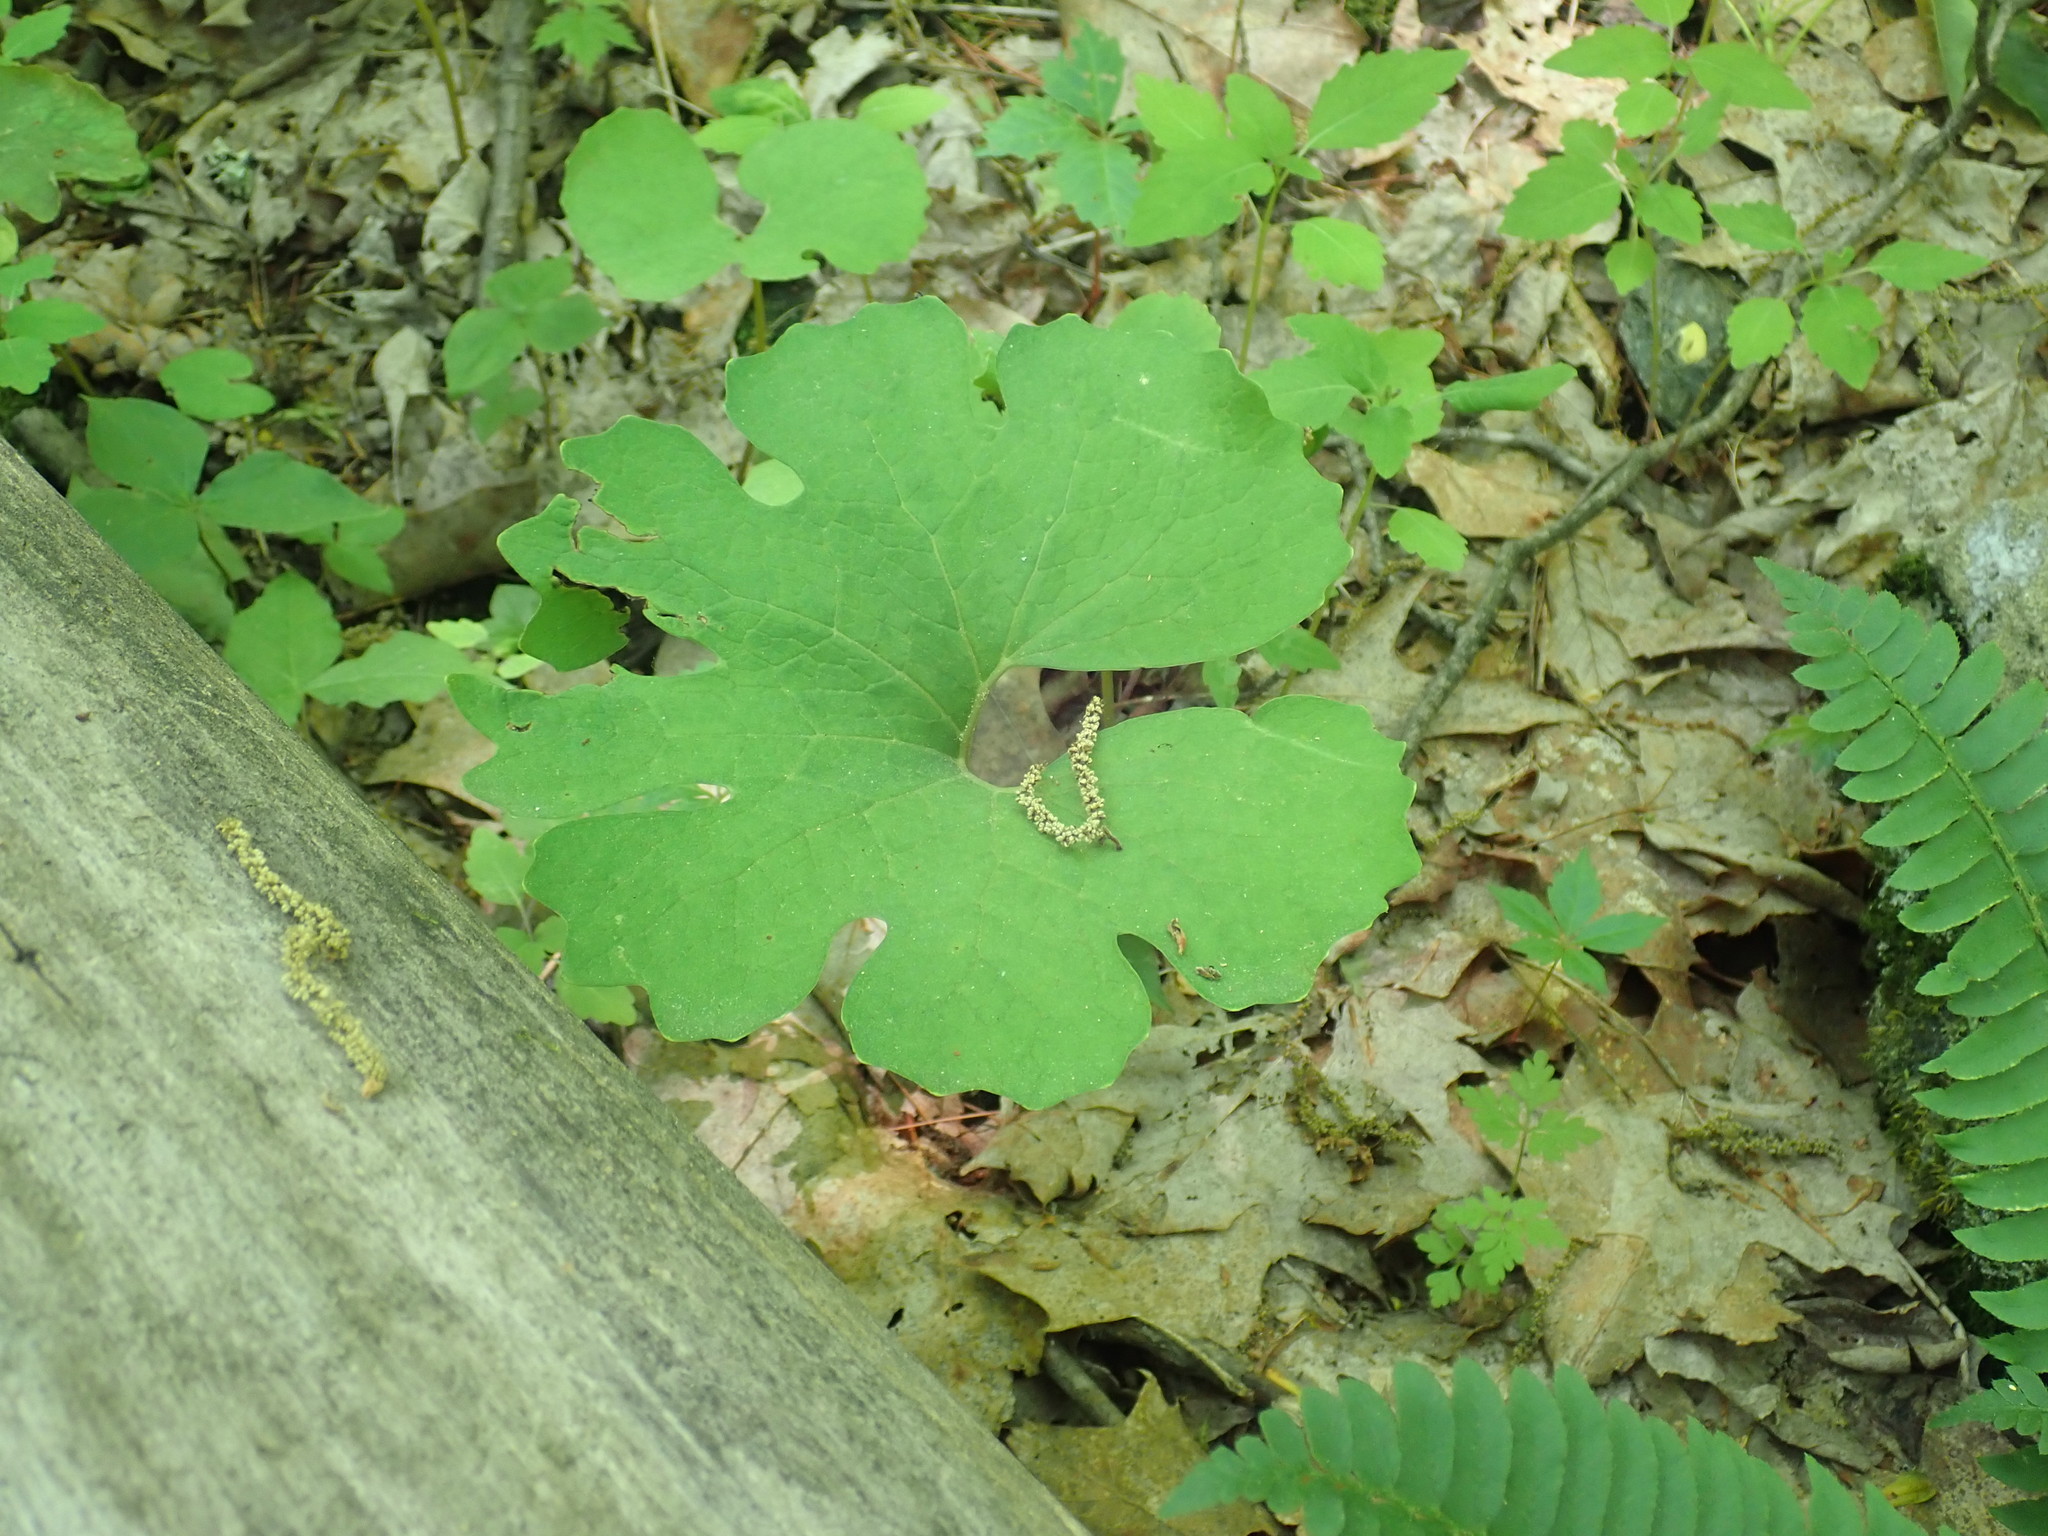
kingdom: Plantae
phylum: Tracheophyta
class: Magnoliopsida
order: Ranunculales
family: Papaveraceae
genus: Sanguinaria
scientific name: Sanguinaria canadensis
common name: Bloodroot
